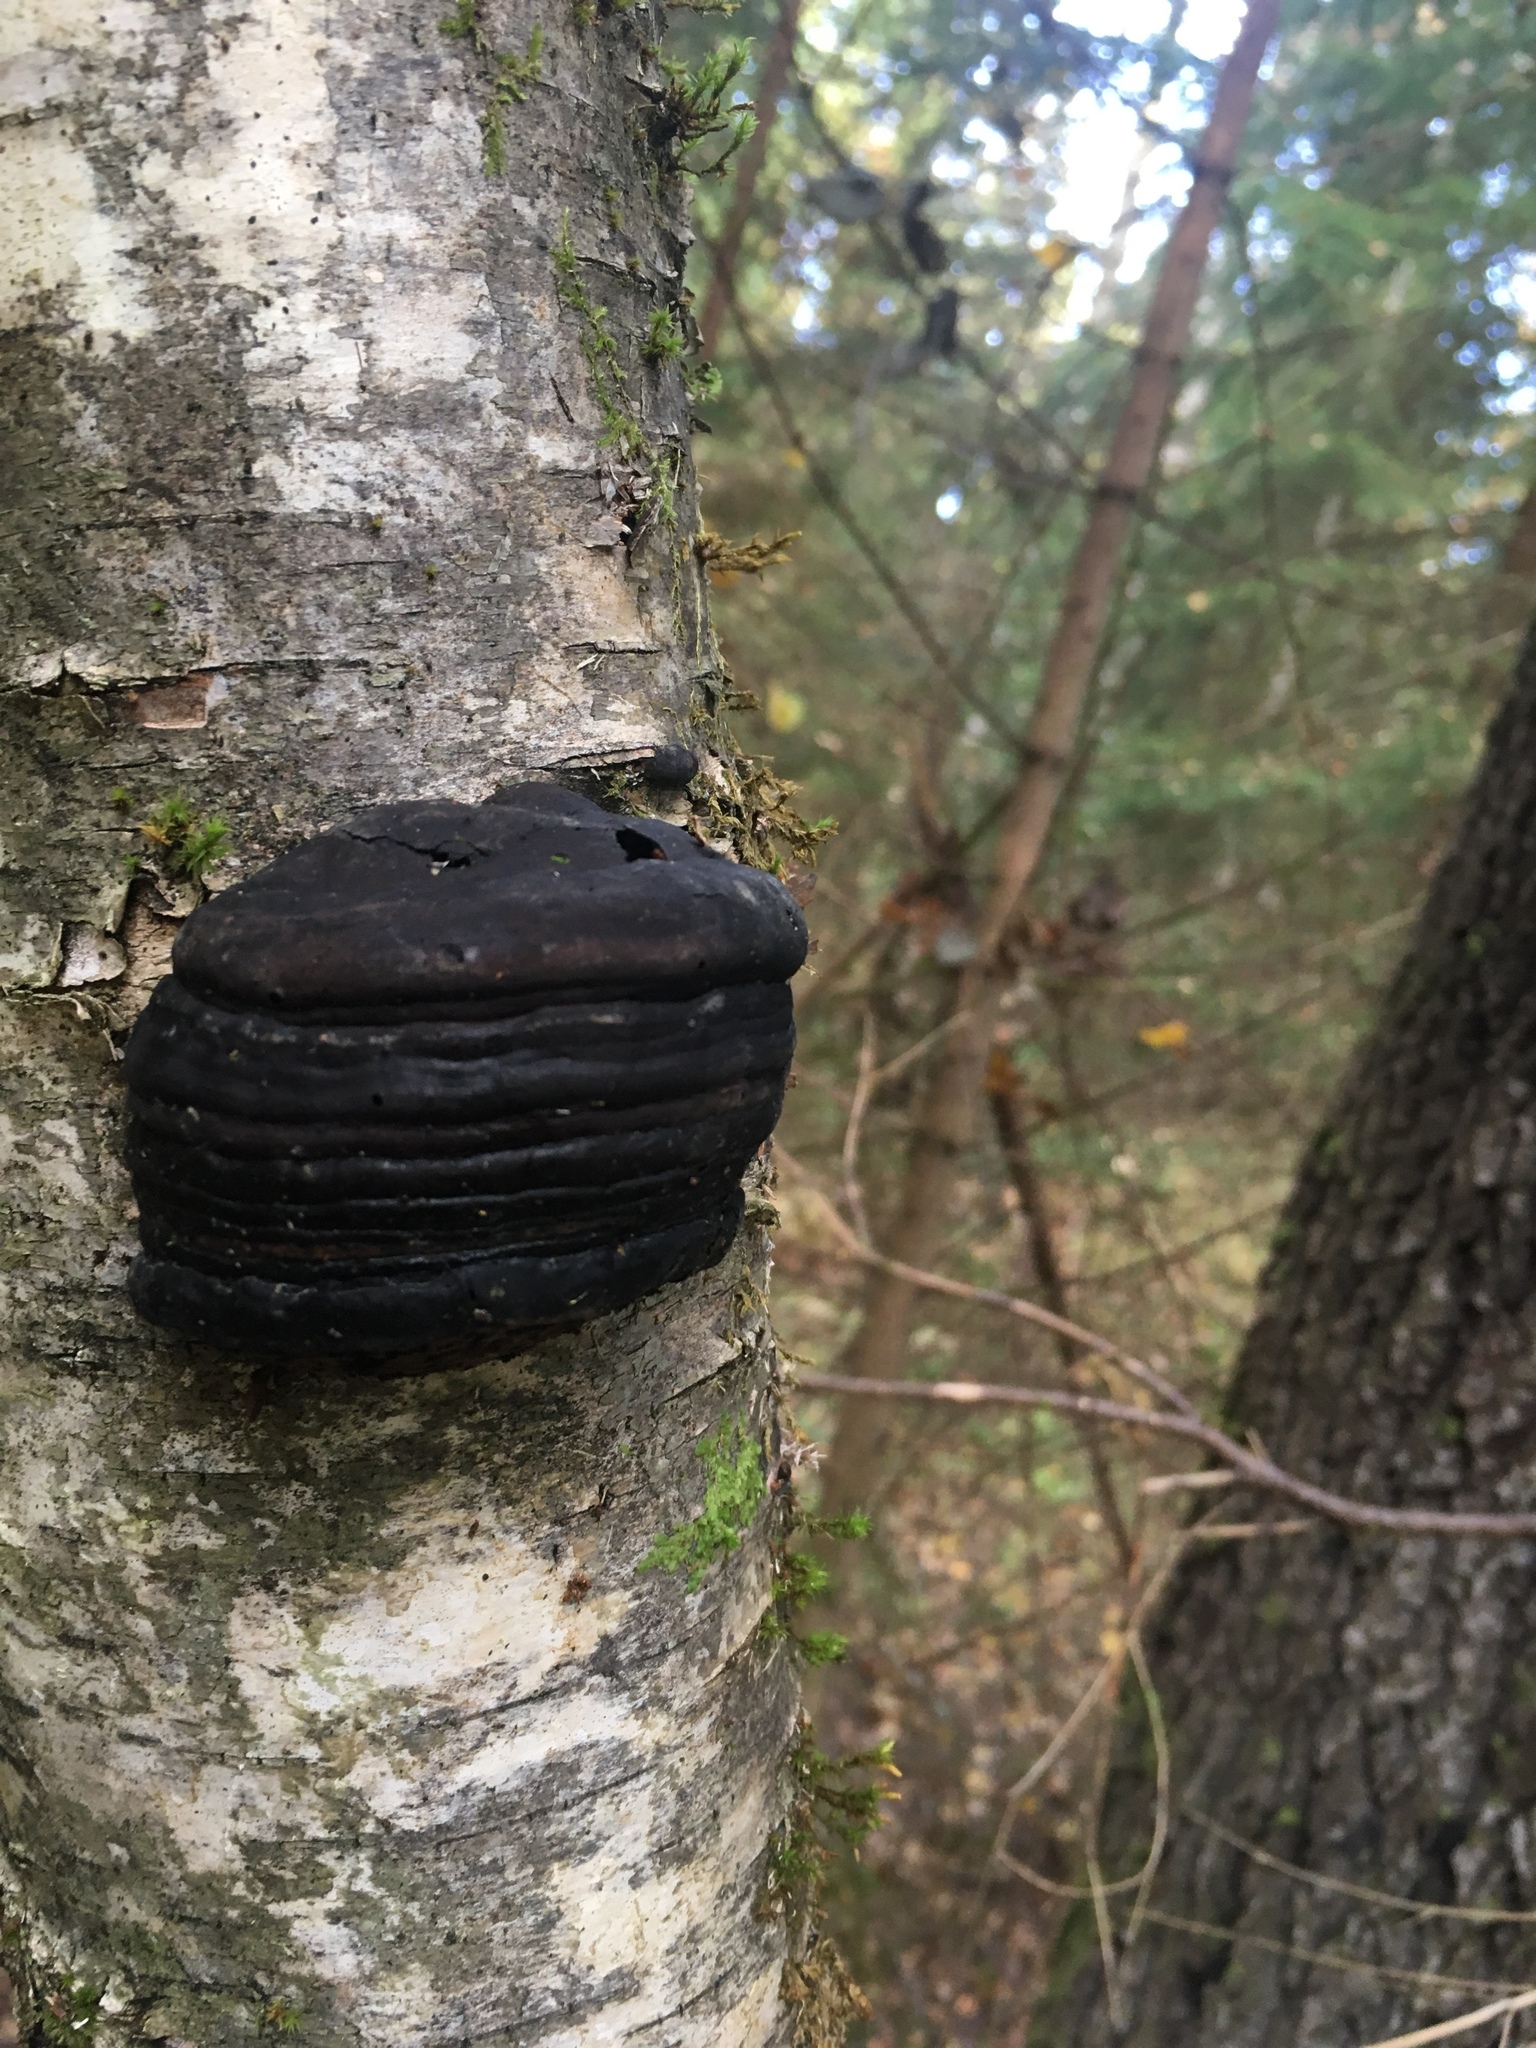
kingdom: Fungi
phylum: Basidiomycota
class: Agaricomycetes
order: Polyporales
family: Polyporaceae
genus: Fomes
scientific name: Fomes fomentarius
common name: Hoof fungus
